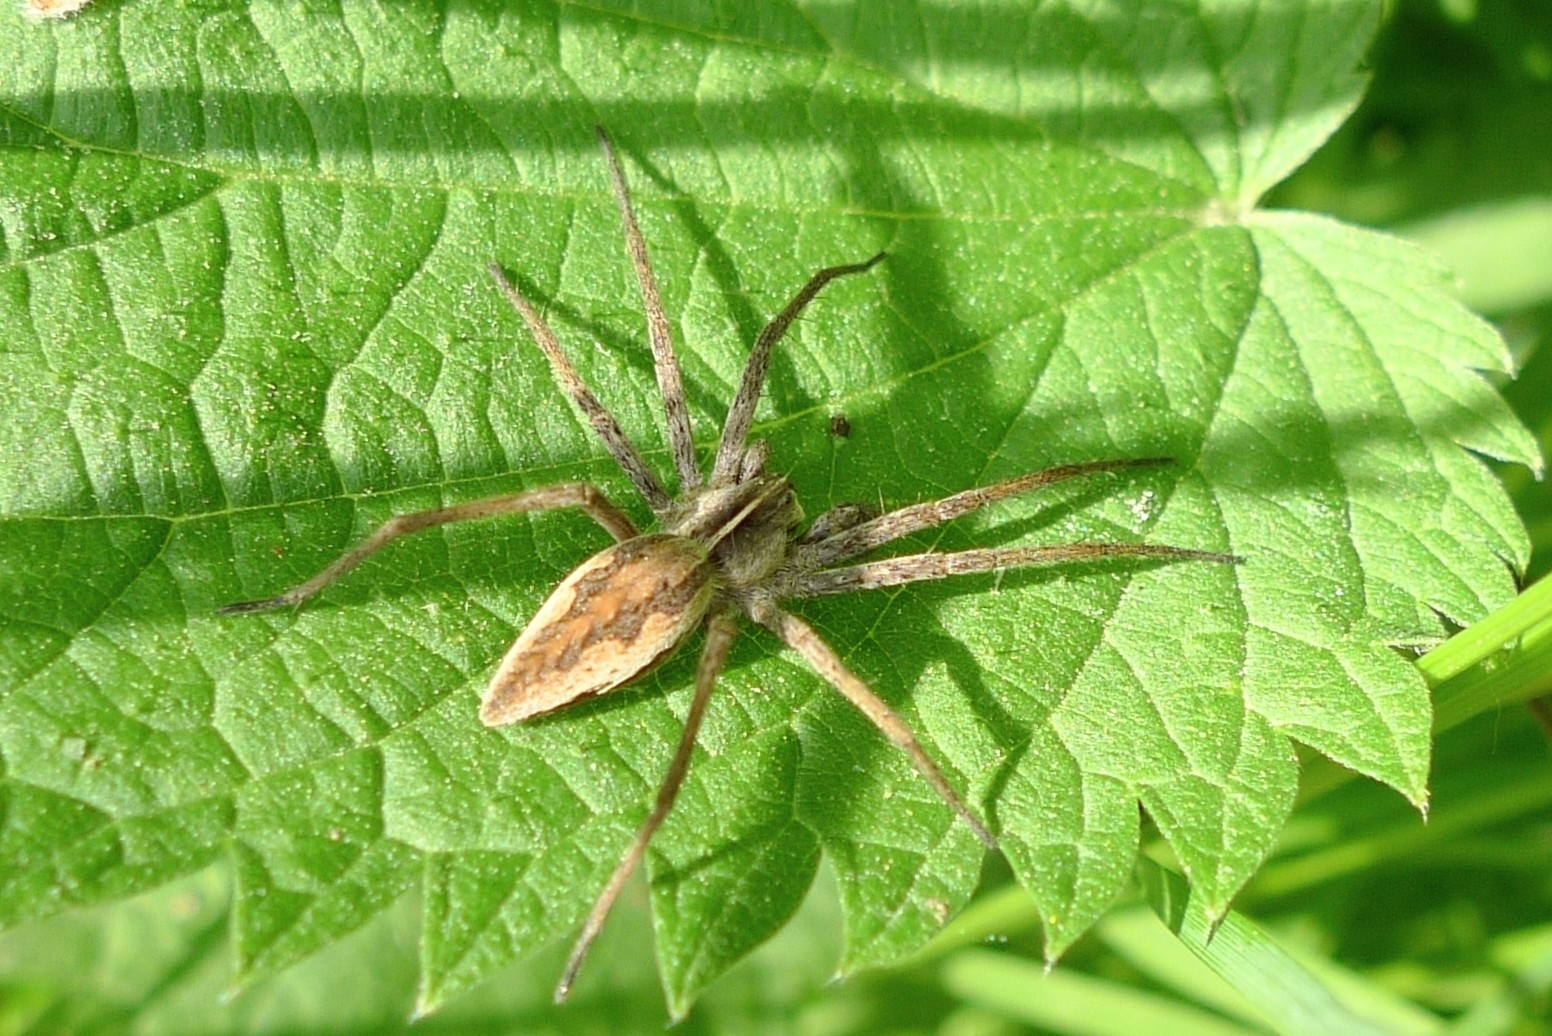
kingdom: Animalia
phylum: Arthropoda
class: Arachnida
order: Araneae
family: Pisauridae
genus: Pisaura
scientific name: Pisaura mirabilis
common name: Tent spider
